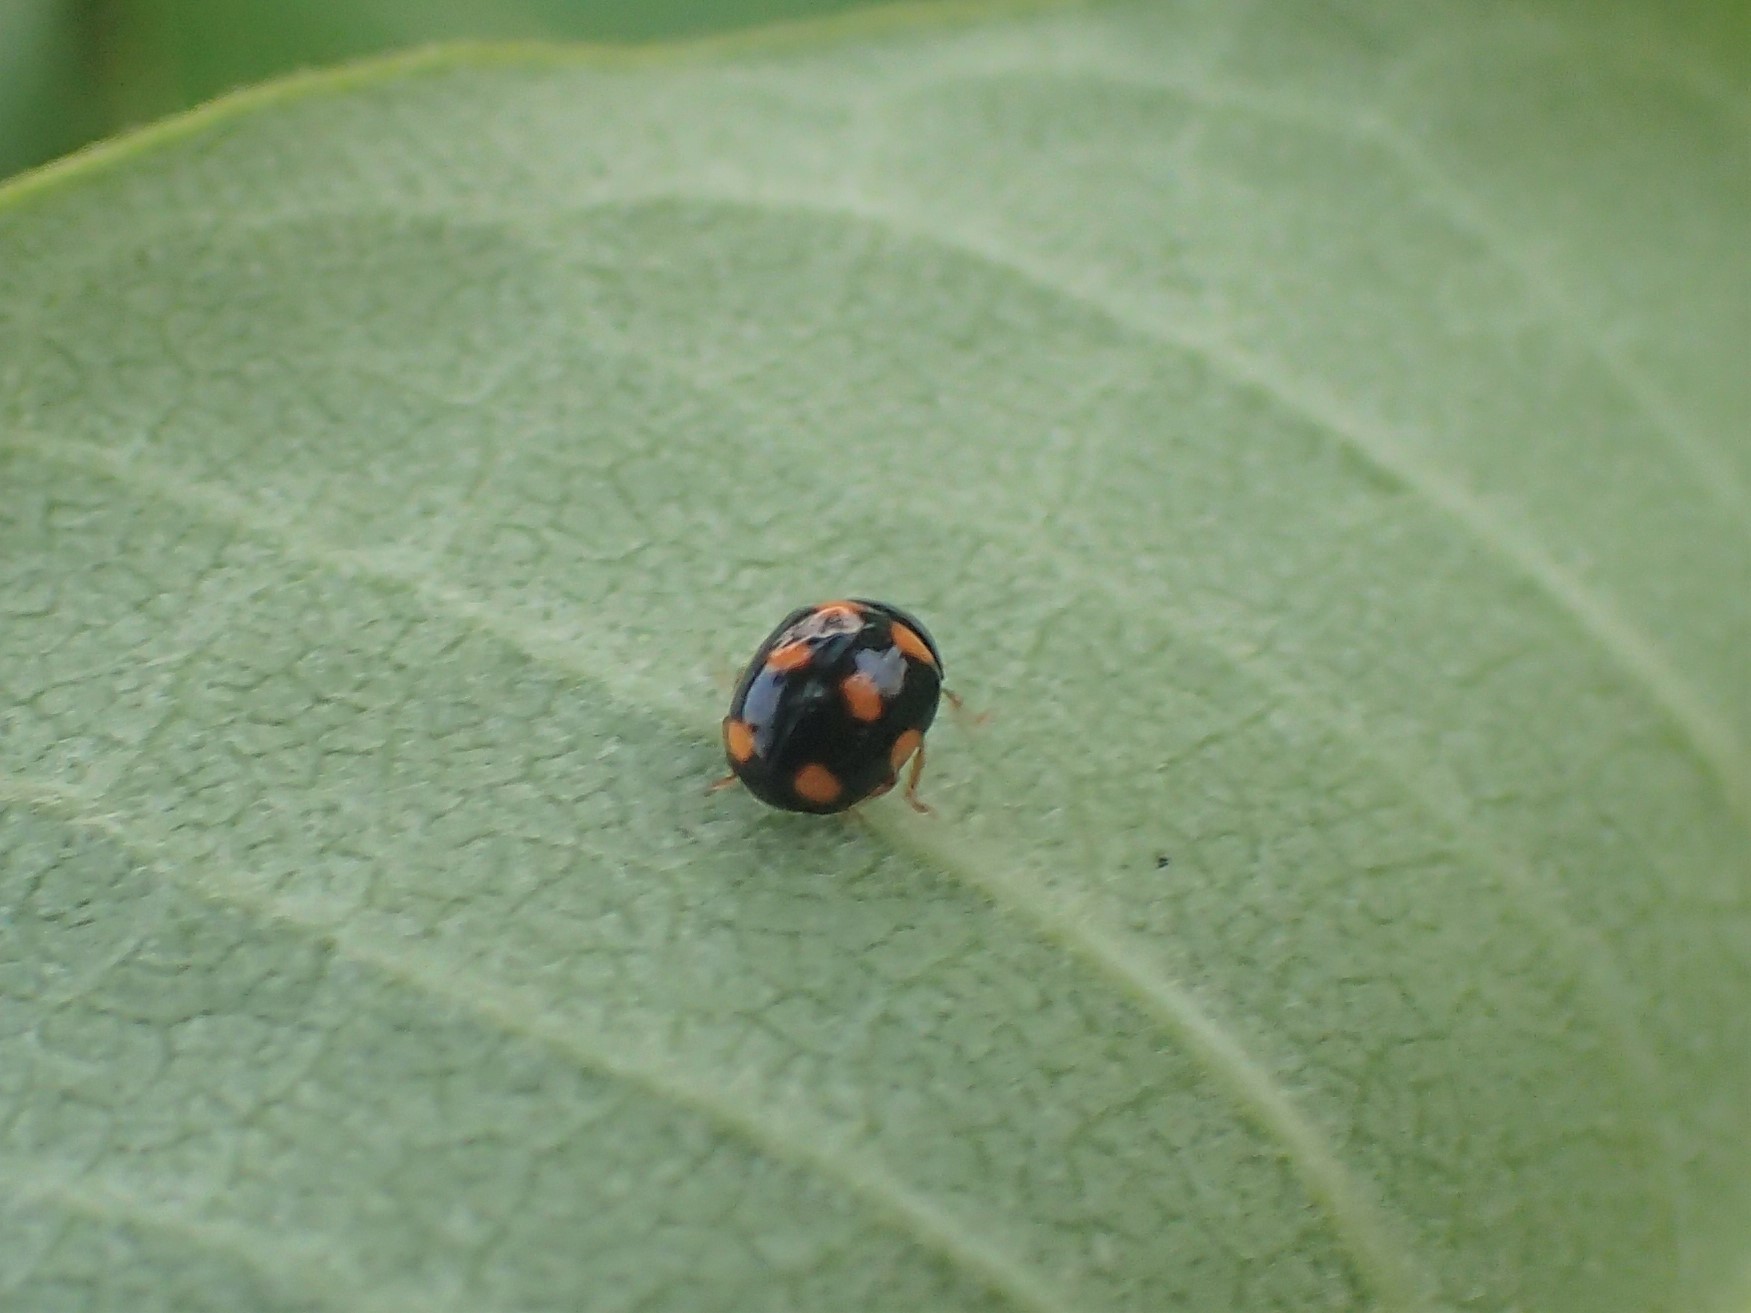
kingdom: Animalia
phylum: Arthropoda
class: Insecta
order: Coleoptera
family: Coccinellidae
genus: Brachiacantha
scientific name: Brachiacantha ursina
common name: Ursine spurleg lady beetle
